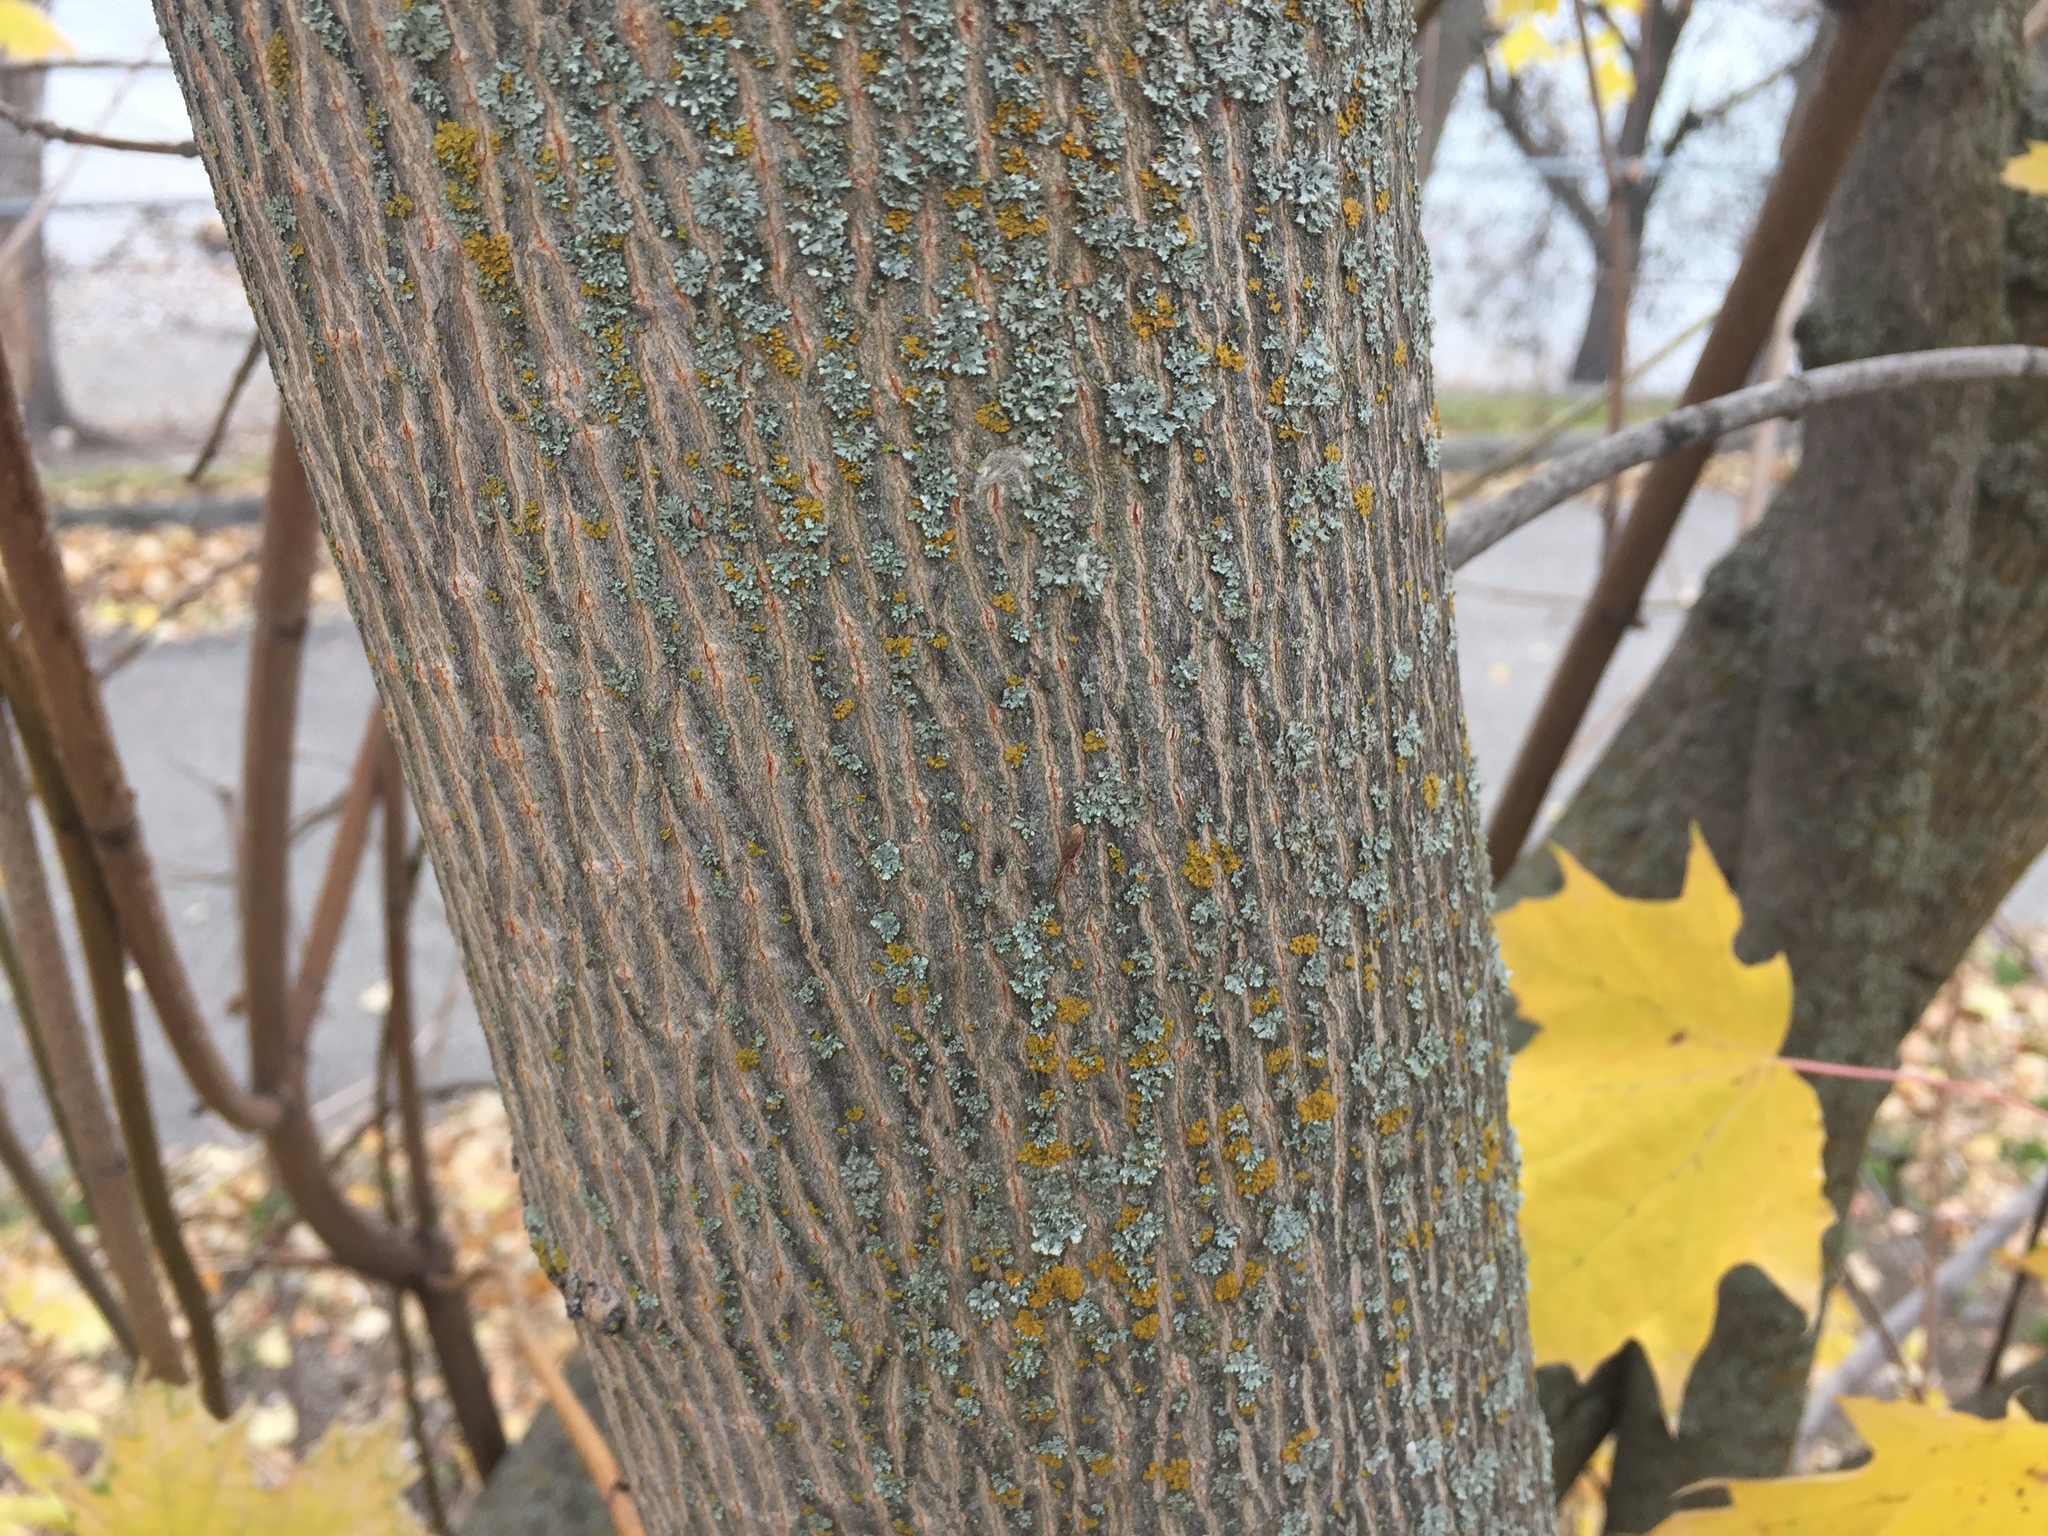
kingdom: Plantae
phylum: Tracheophyta
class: Magnoliopsida
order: Sapindales
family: Sapindaceae
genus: Acer
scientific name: Acer platanoides
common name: Norway maple
